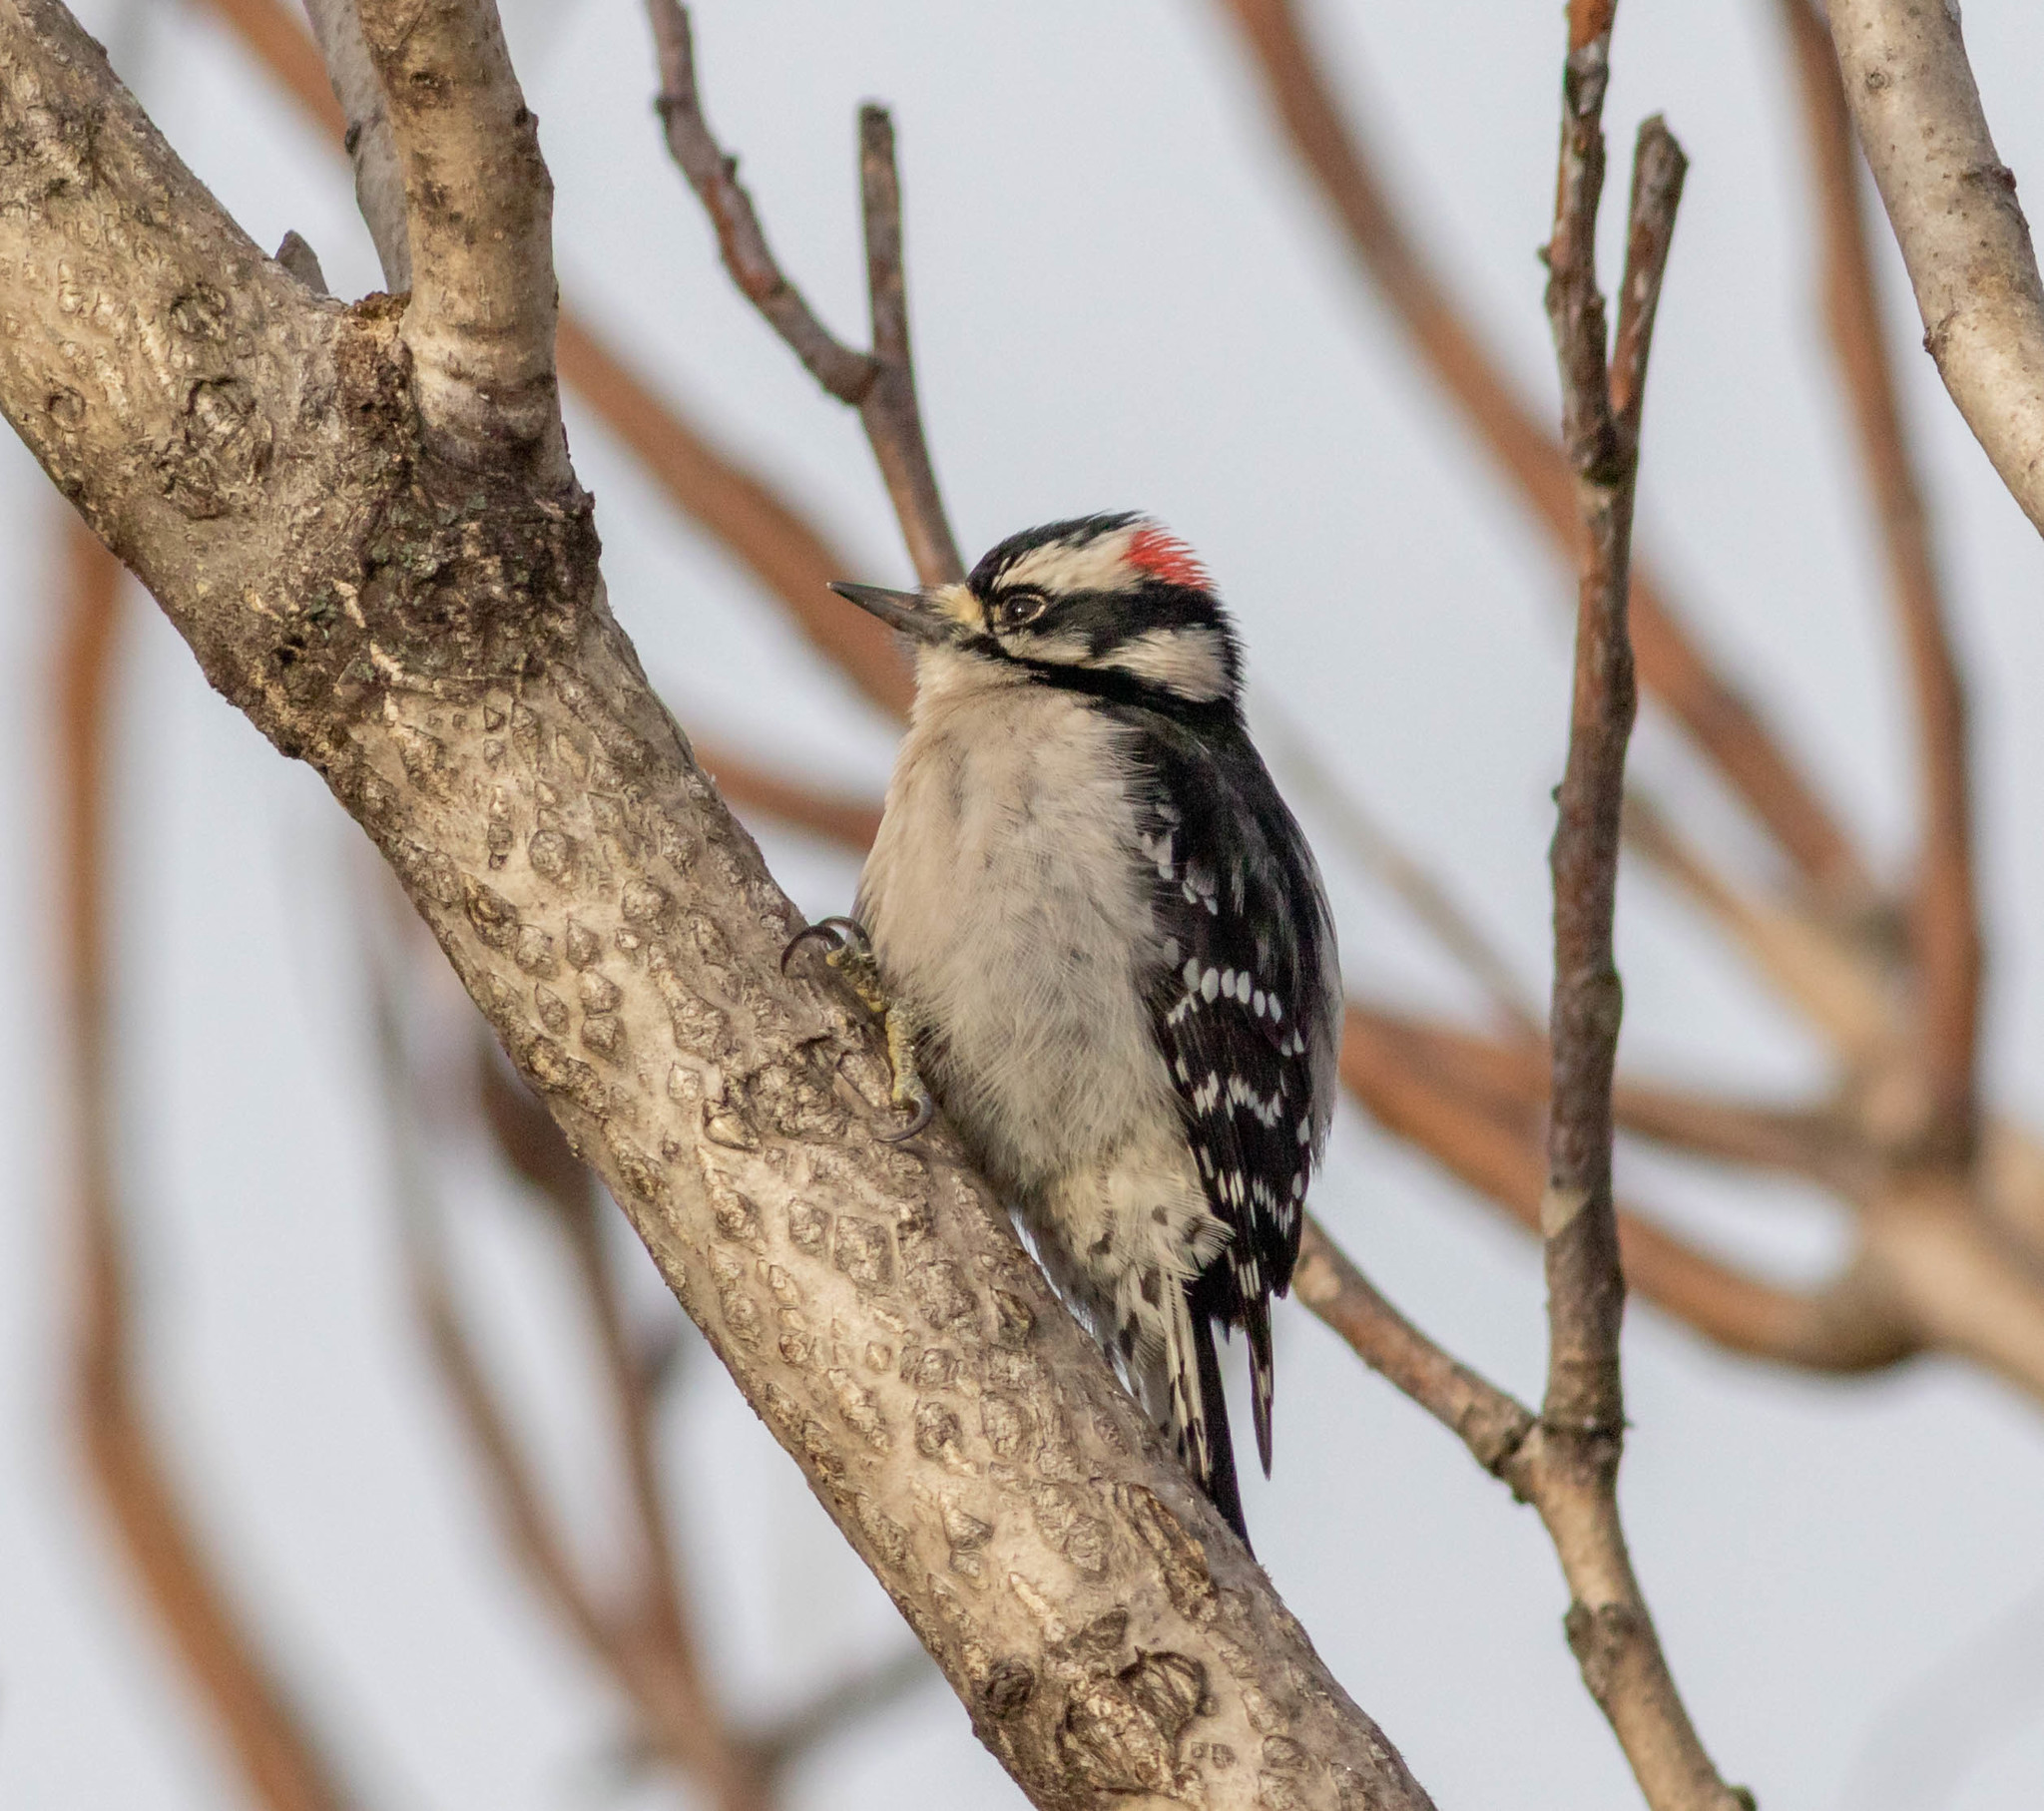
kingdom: Animalia
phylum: Chordata
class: Aves
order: Piciformes
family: Picidae
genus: Dryobates
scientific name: Dryobates pubescens
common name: Downy woodpecker
